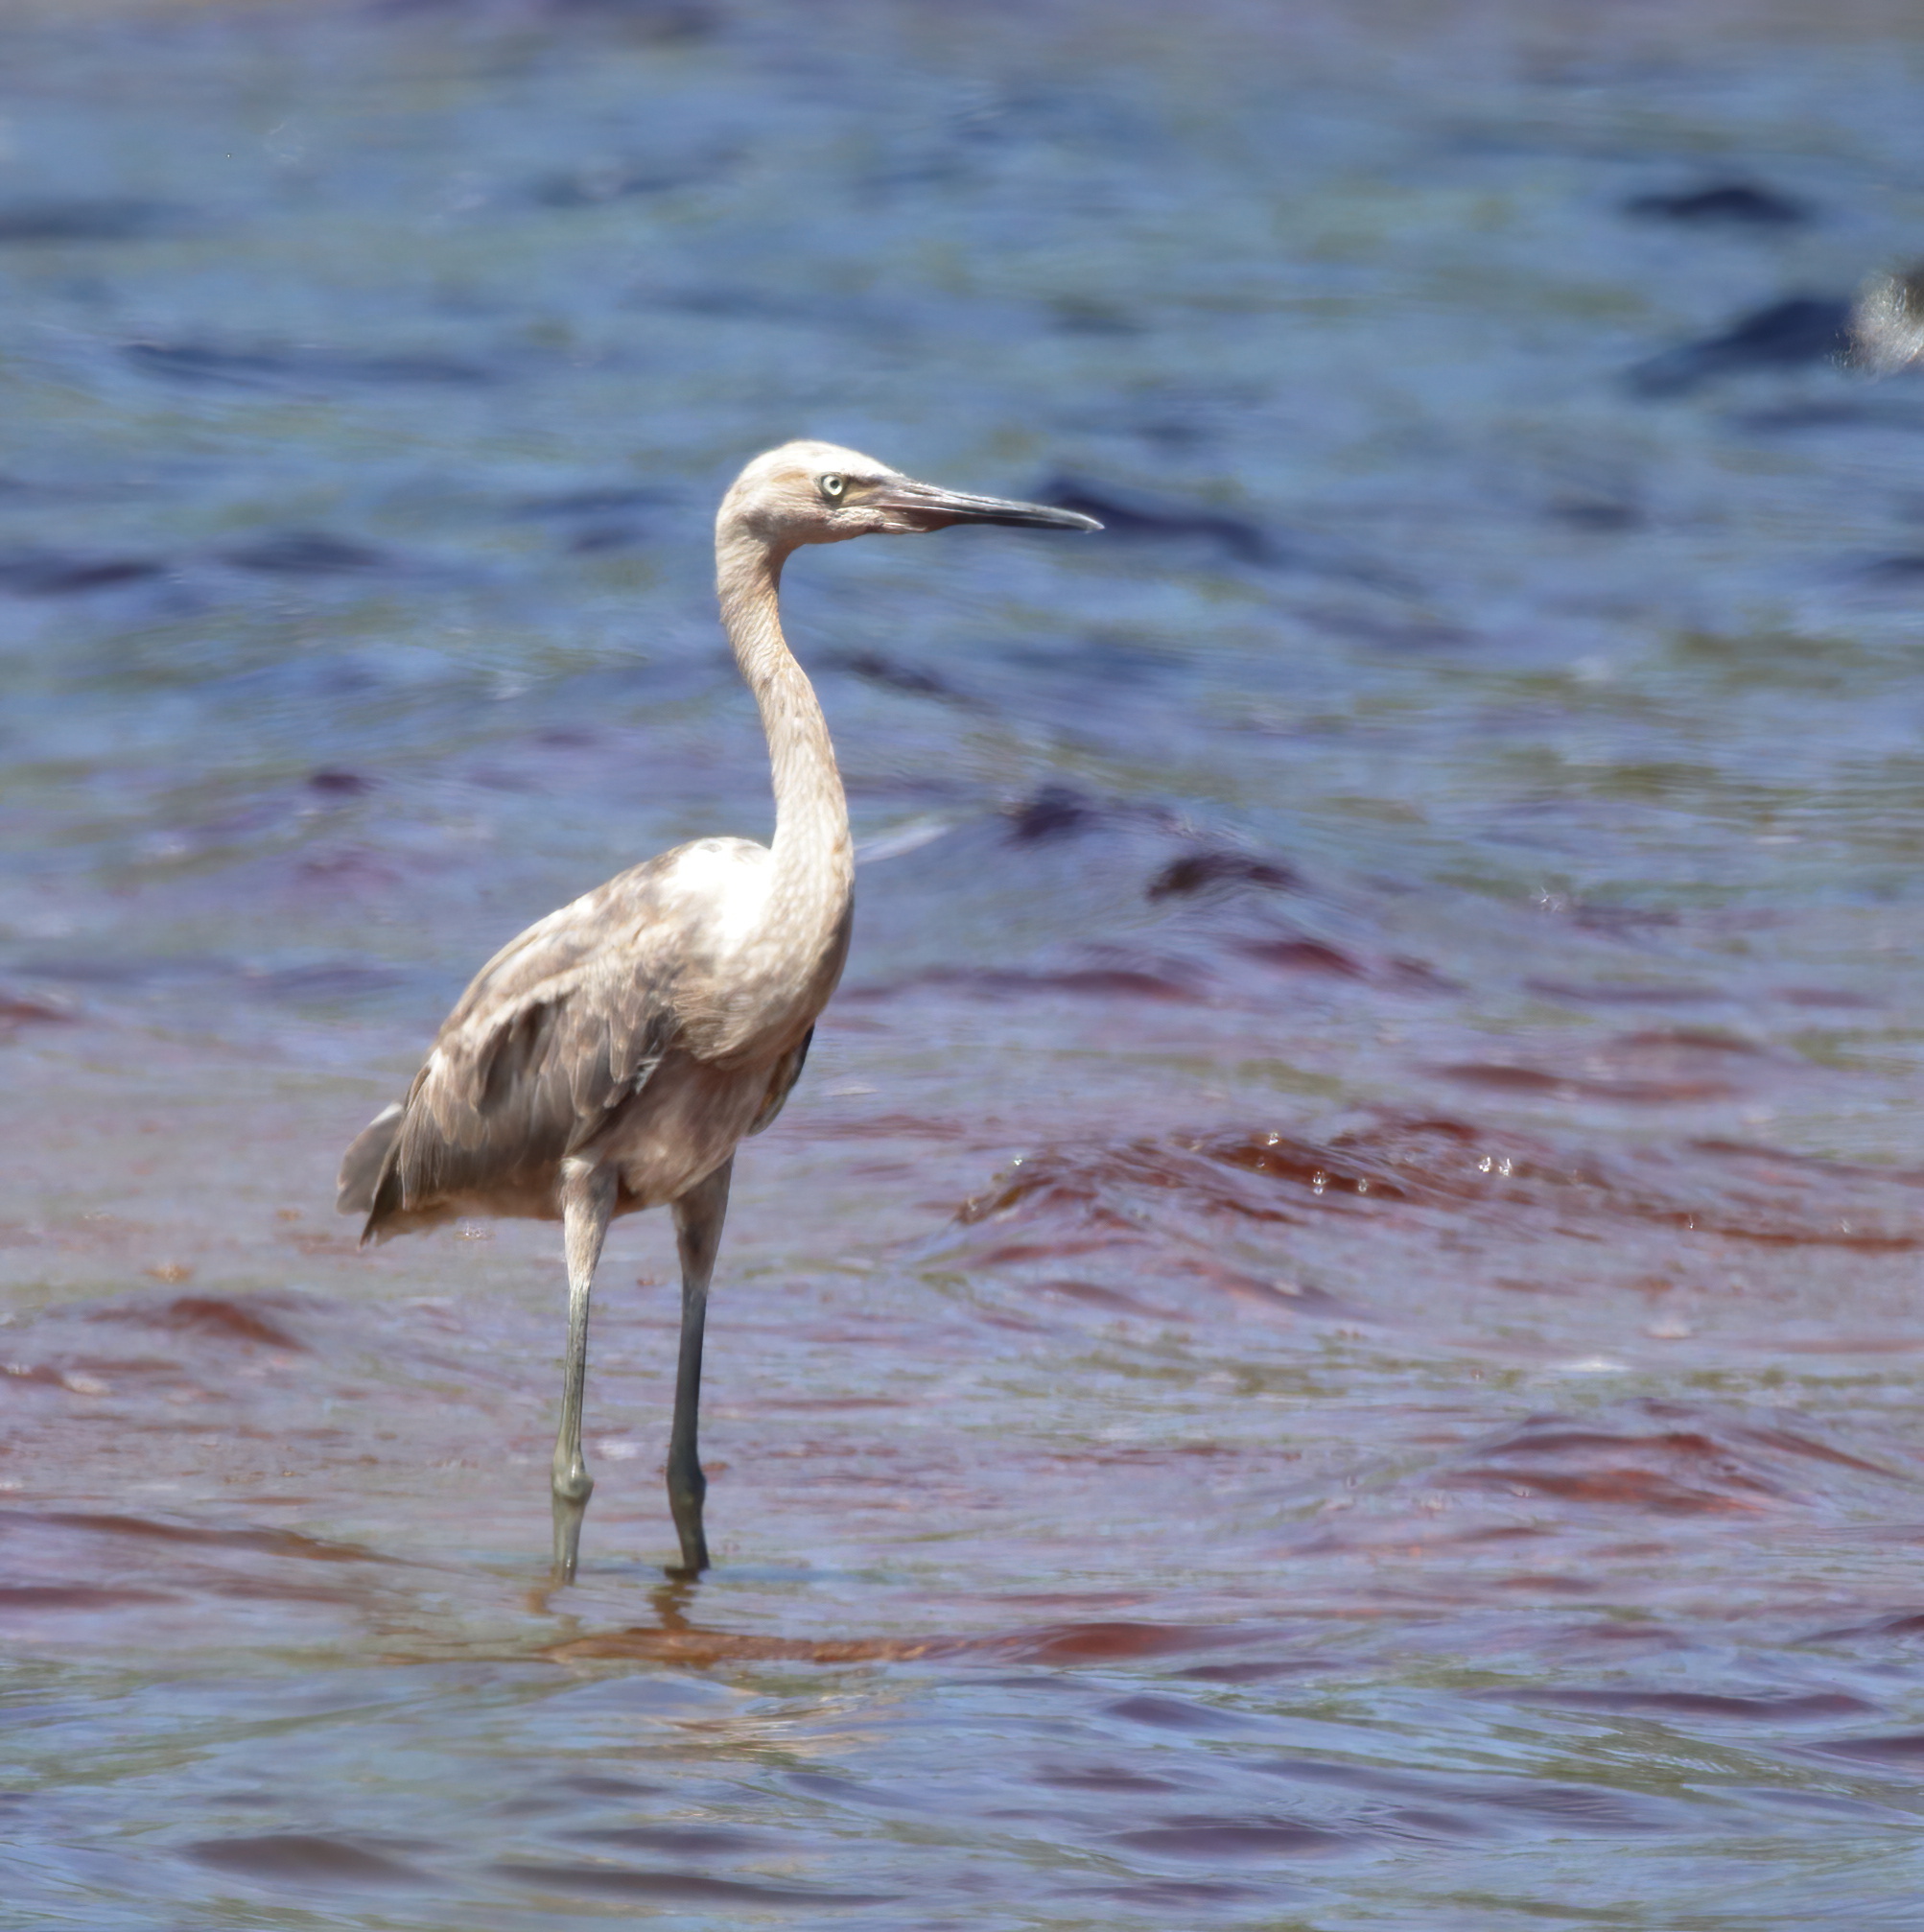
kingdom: Animalia
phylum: Chordata
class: Aves
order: Pelecaniformes
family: Ardeidae
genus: Egretta
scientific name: Egretta rufescens
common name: Reddish egret
